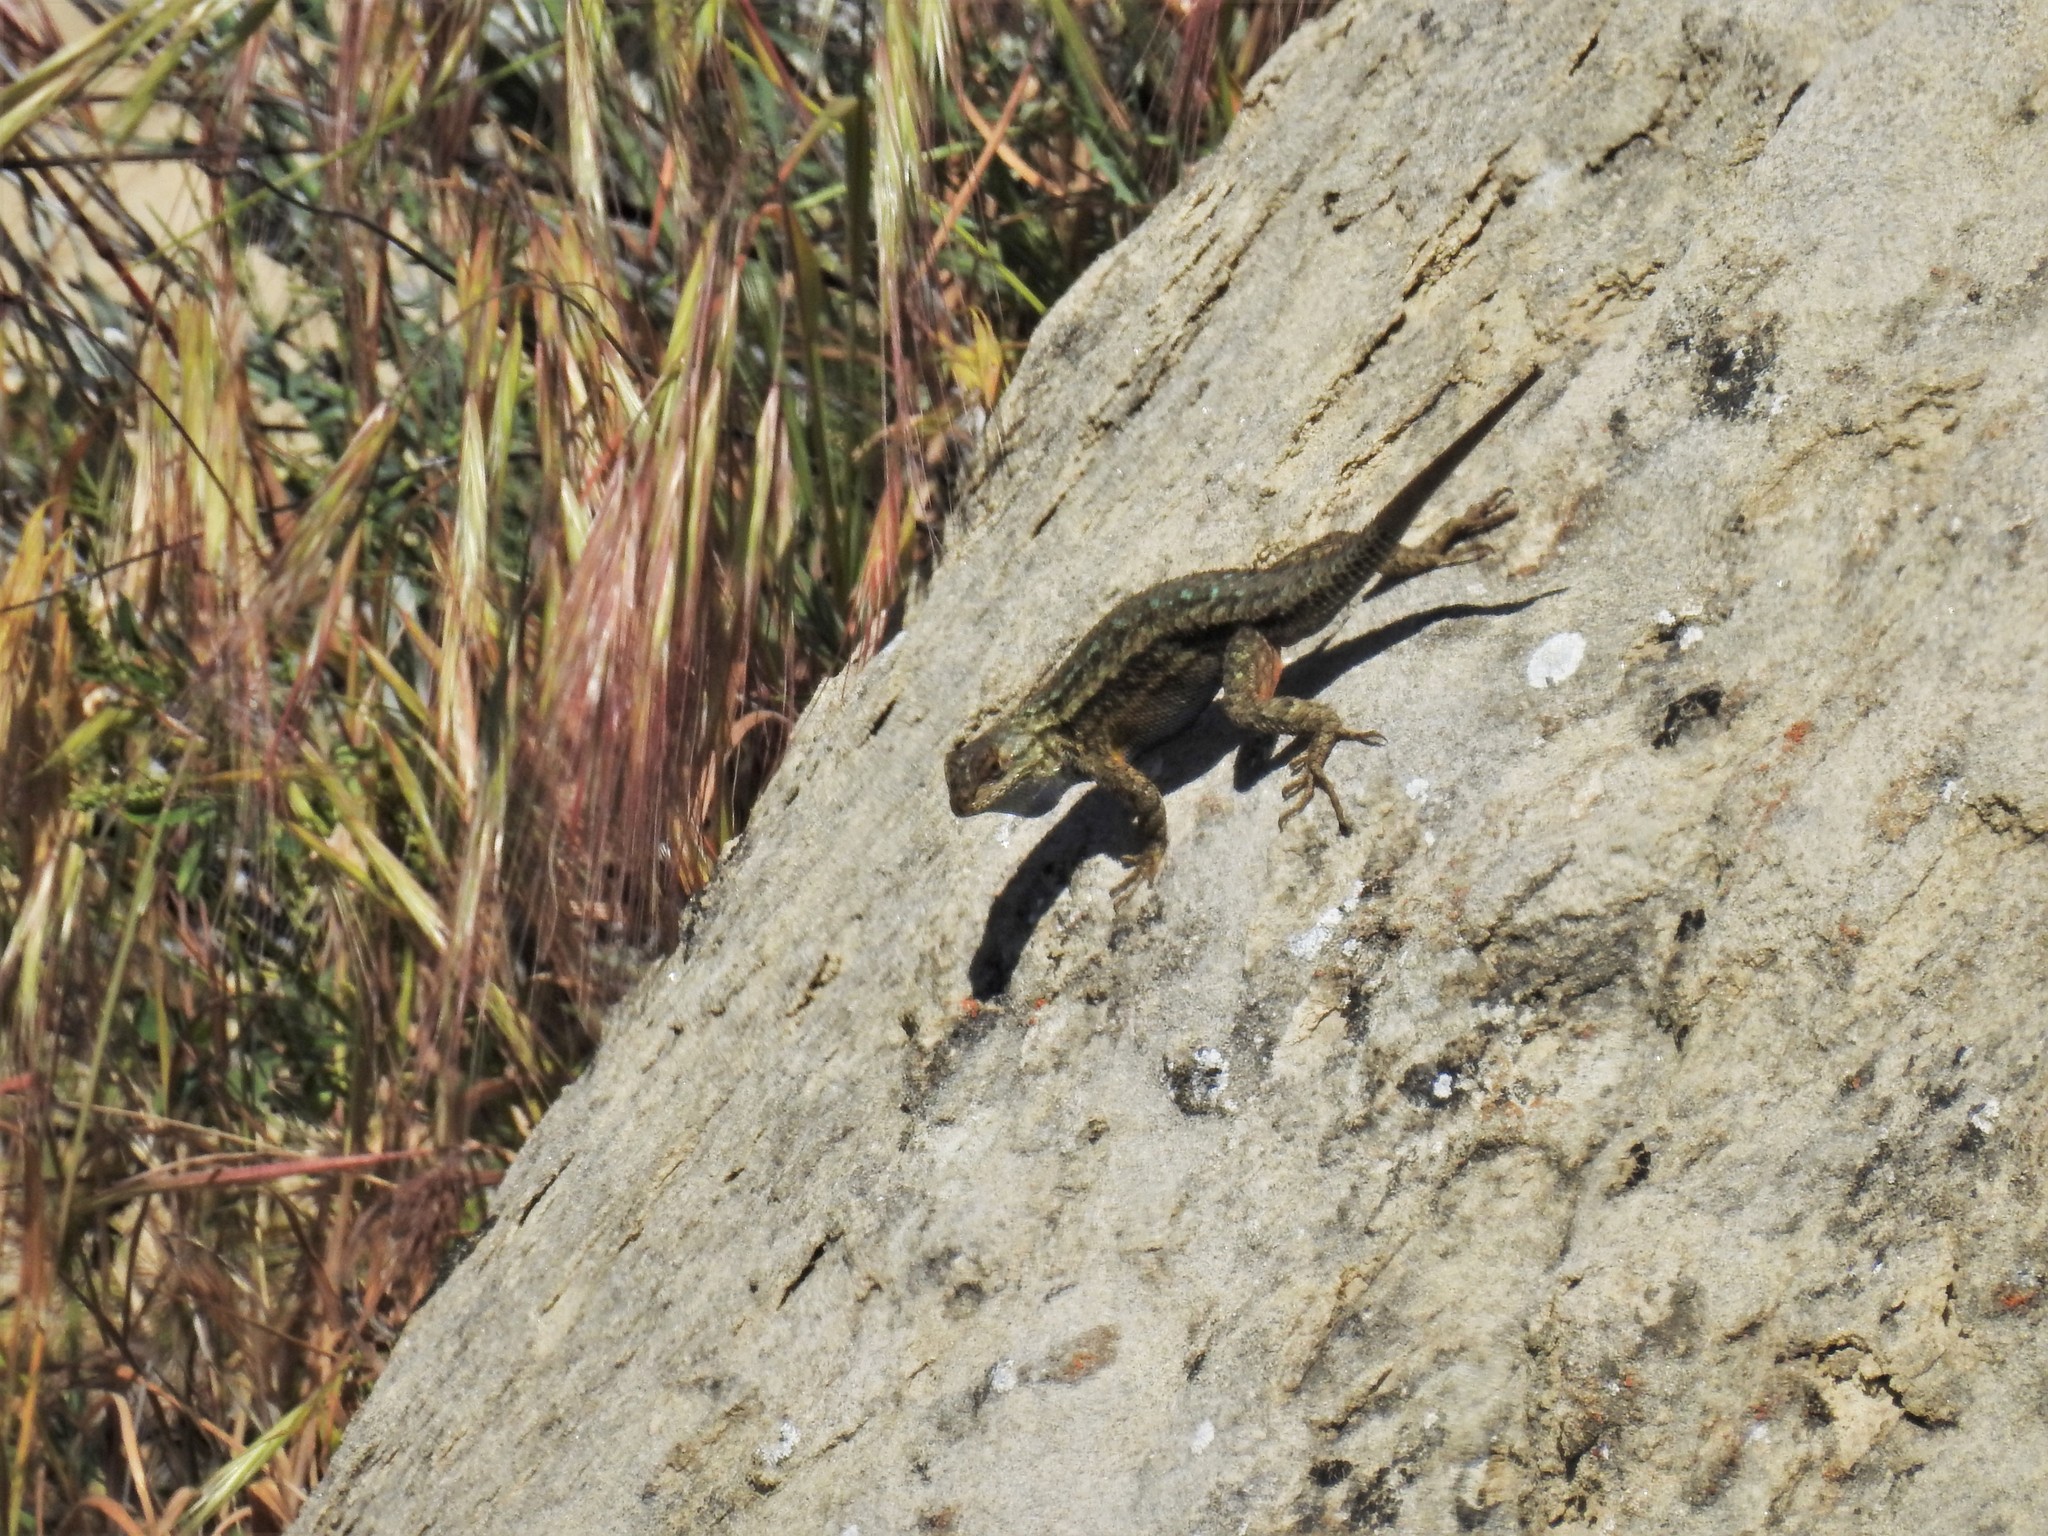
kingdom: Animalia
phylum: Chordata
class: Squamata
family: Phrynosomatidae
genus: Sceloporus
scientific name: Sceloporus occidentalis
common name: Western fence lizard
